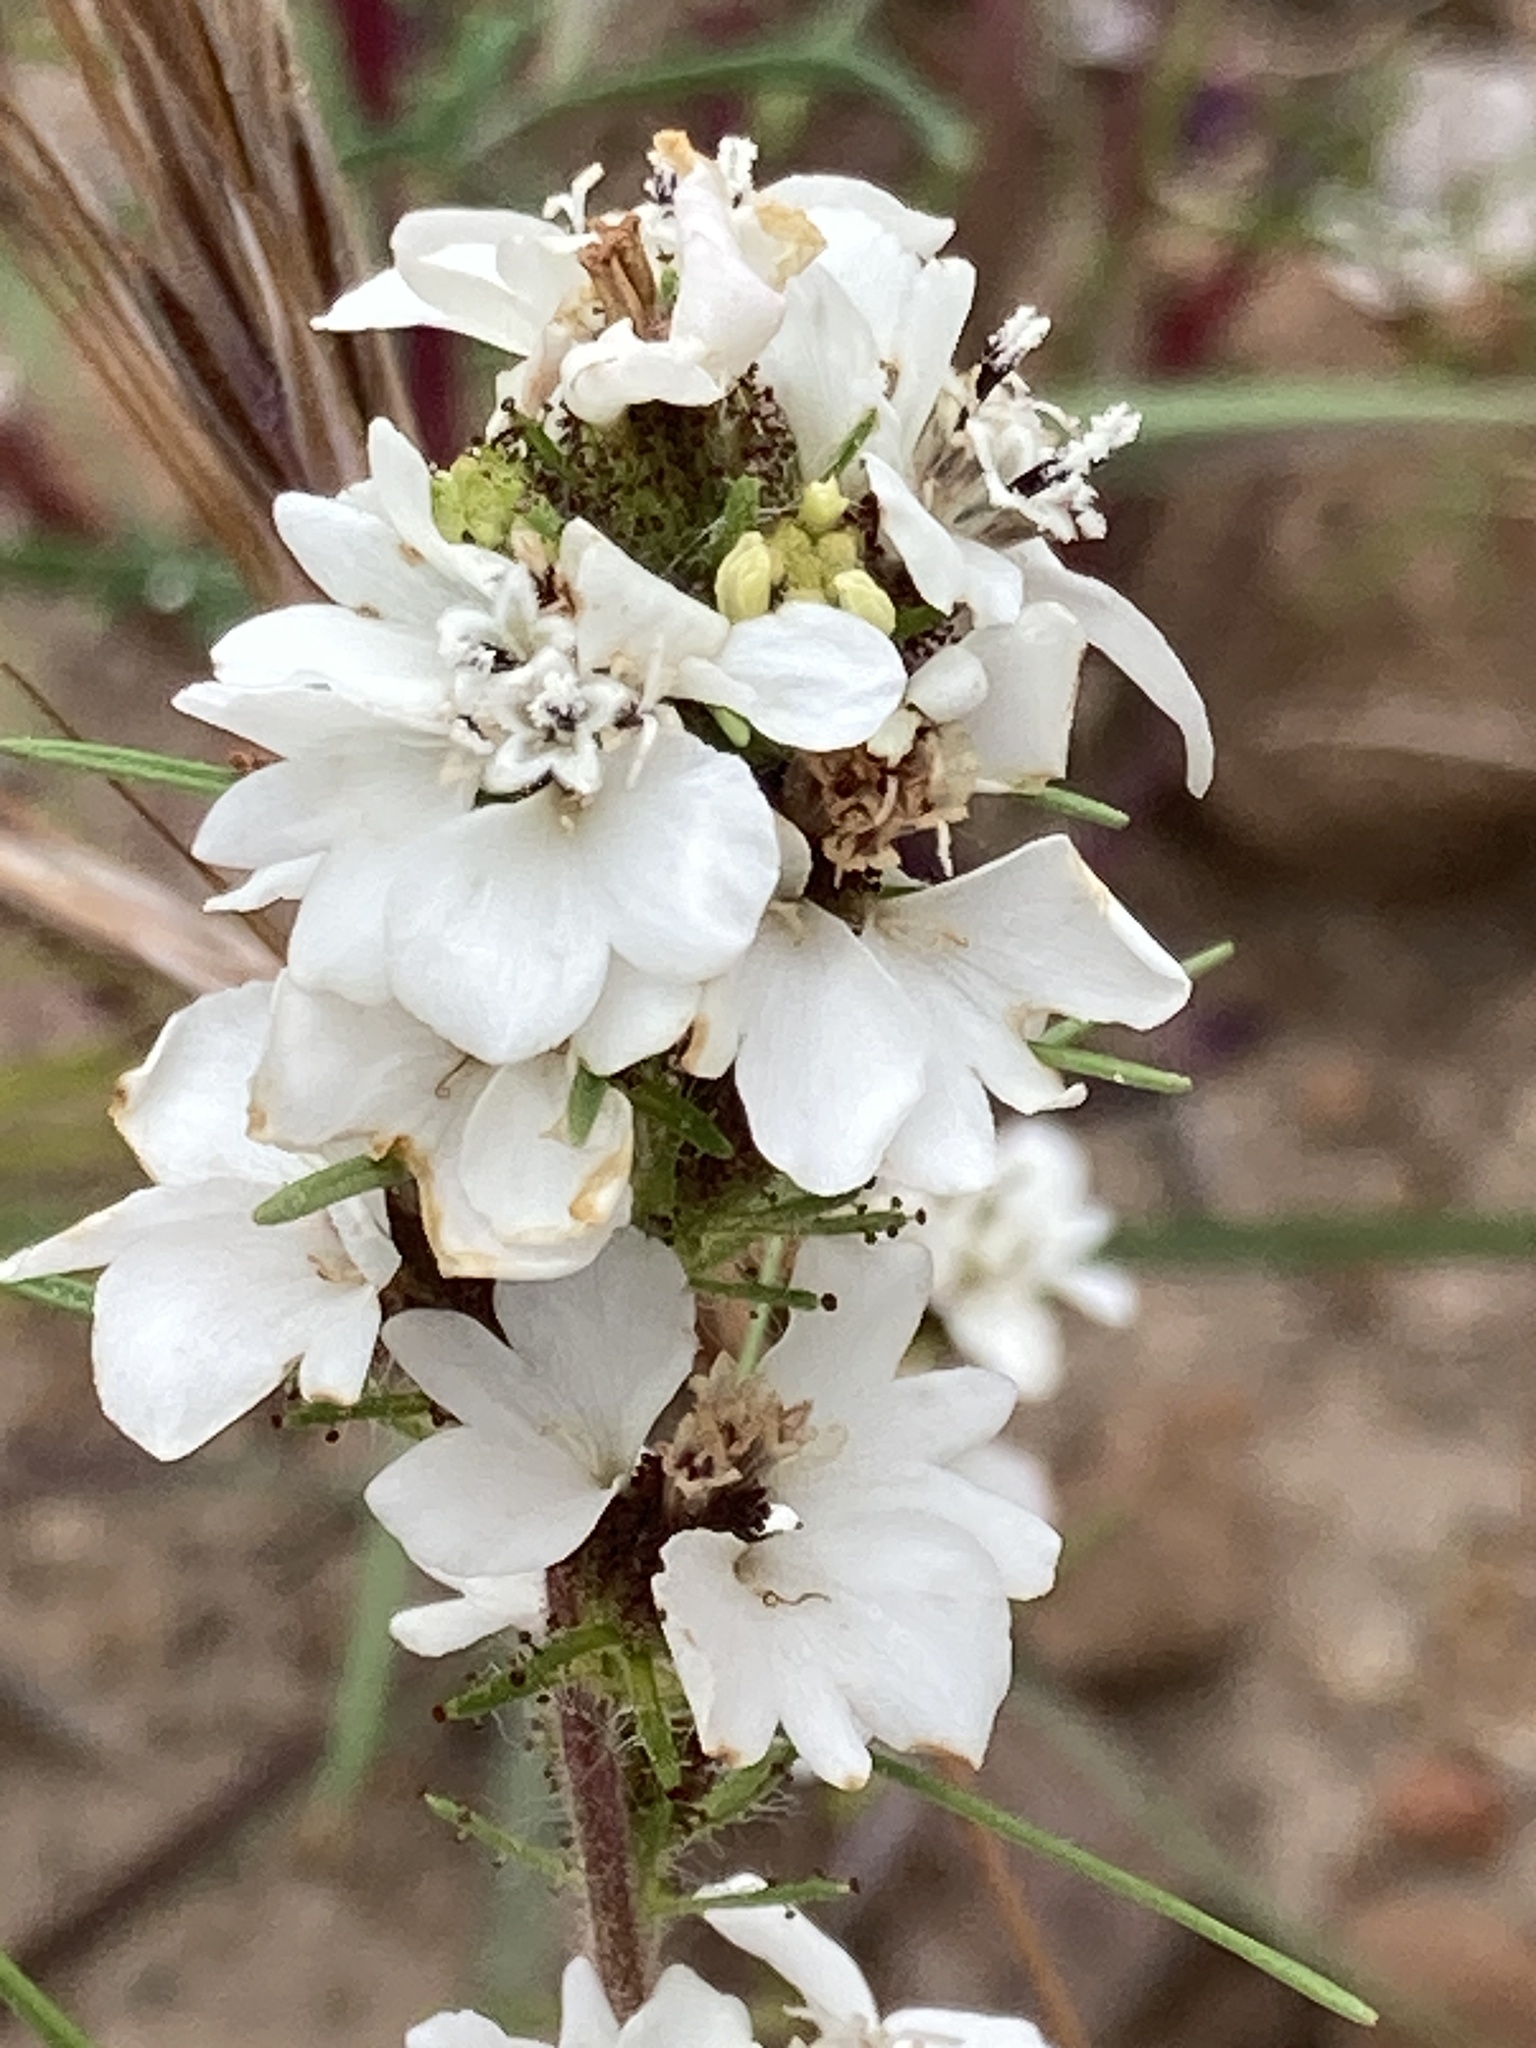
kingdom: Plantae
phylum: Tracheophyta
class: Magnoliopsida
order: Asterales
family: Asteraceae
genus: Calycadenia
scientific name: Calycadenia multiglandulosa
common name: Sticky calycadenia
